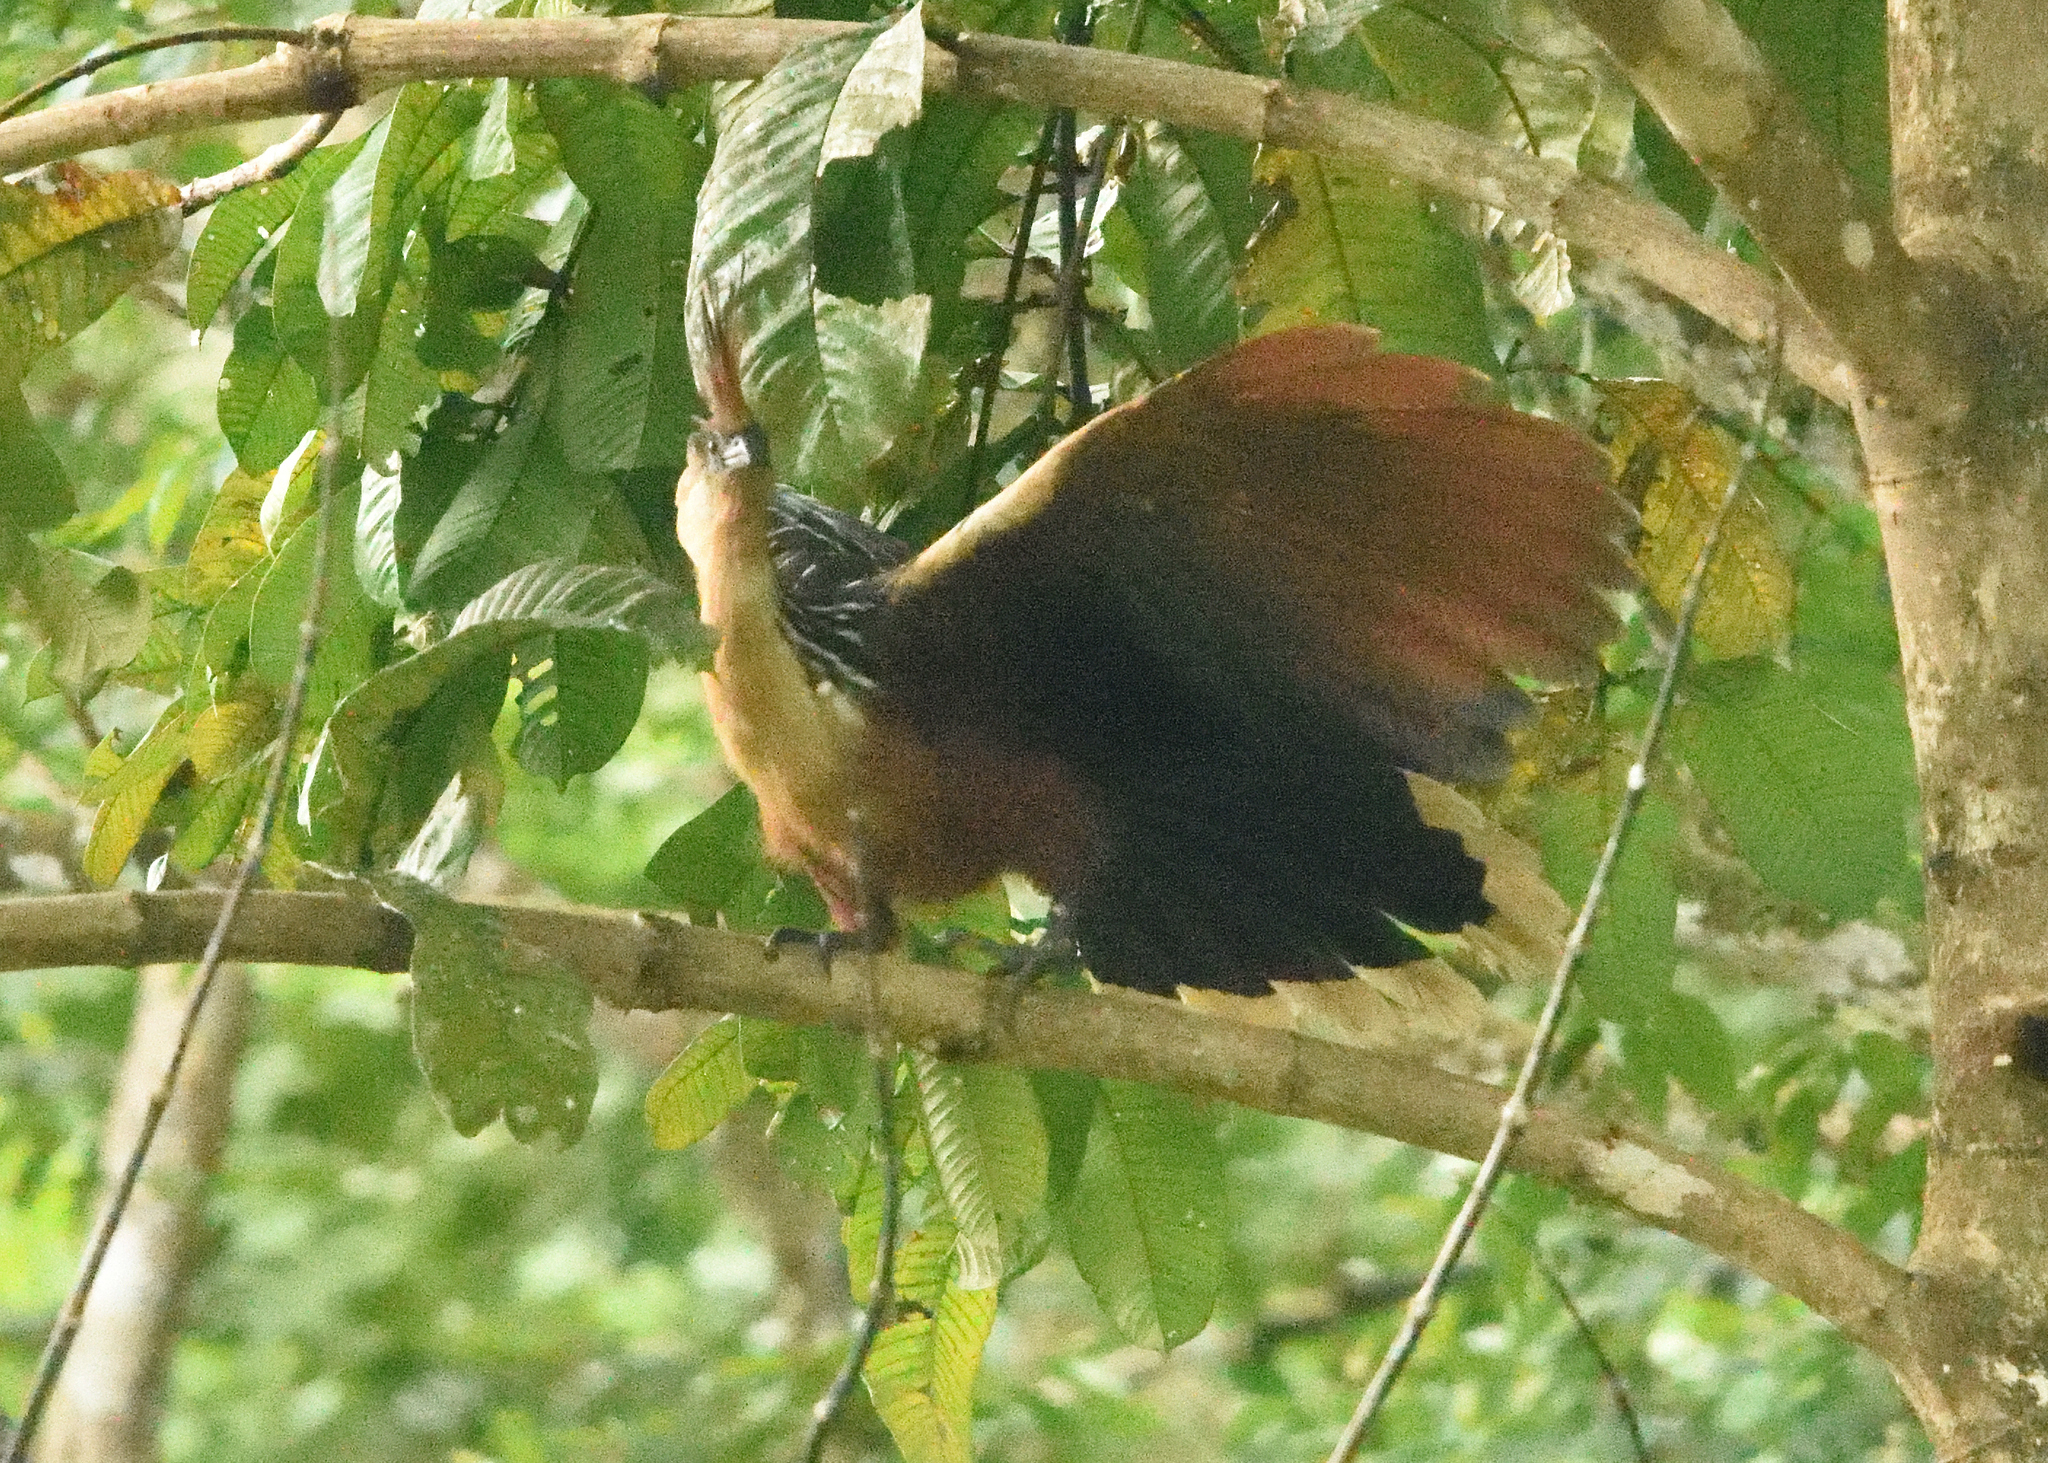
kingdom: Animalia
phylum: Chordata
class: Aves
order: Opisthocomiformes
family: Opisthocomidae
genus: Opisthocomus
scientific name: Opisthocomus hoazin
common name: Hoatzin
